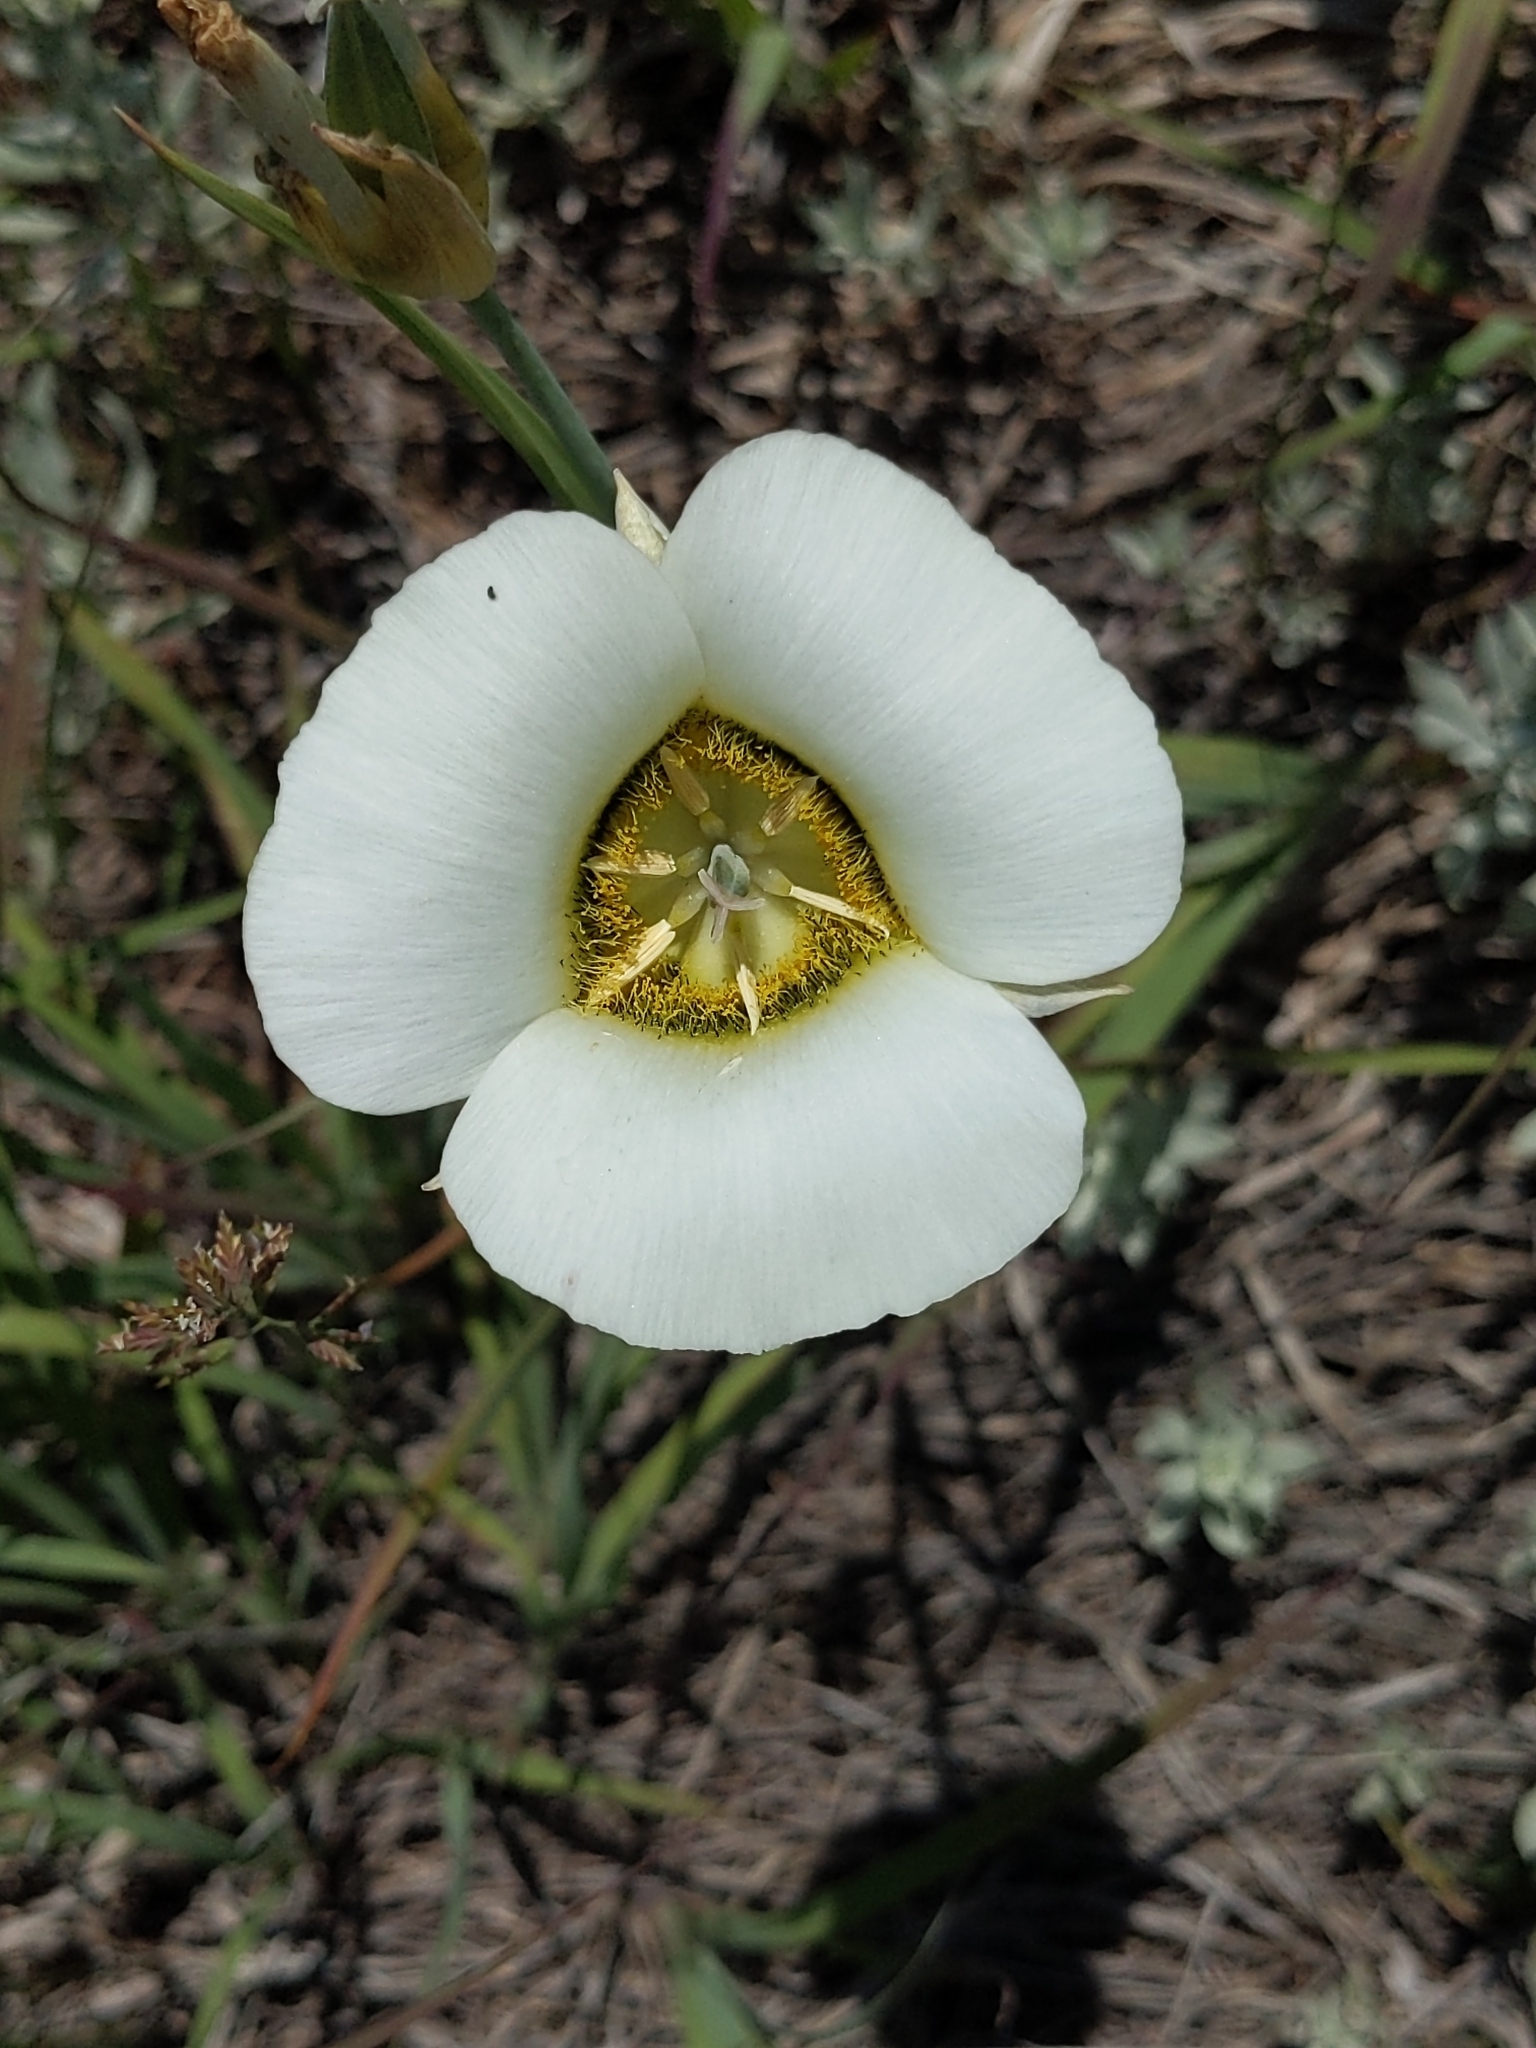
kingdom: Plantae
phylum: Tracheophyta
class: Liliopsida
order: Liliales
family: Liliaceae
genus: Calochortus
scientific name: Calochortus gunnisonii
